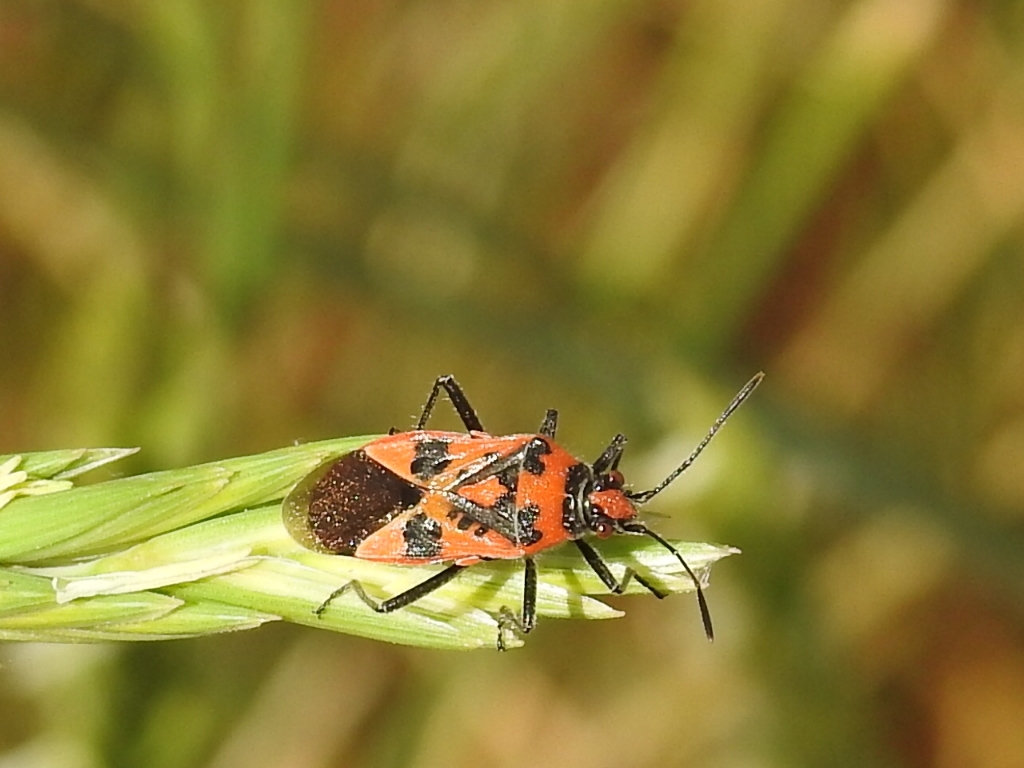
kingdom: Animalia
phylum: Arthropoda
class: Insecta
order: Hemiptera
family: Rhopalidae
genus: Corizus
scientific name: Corizus hyoscyami
